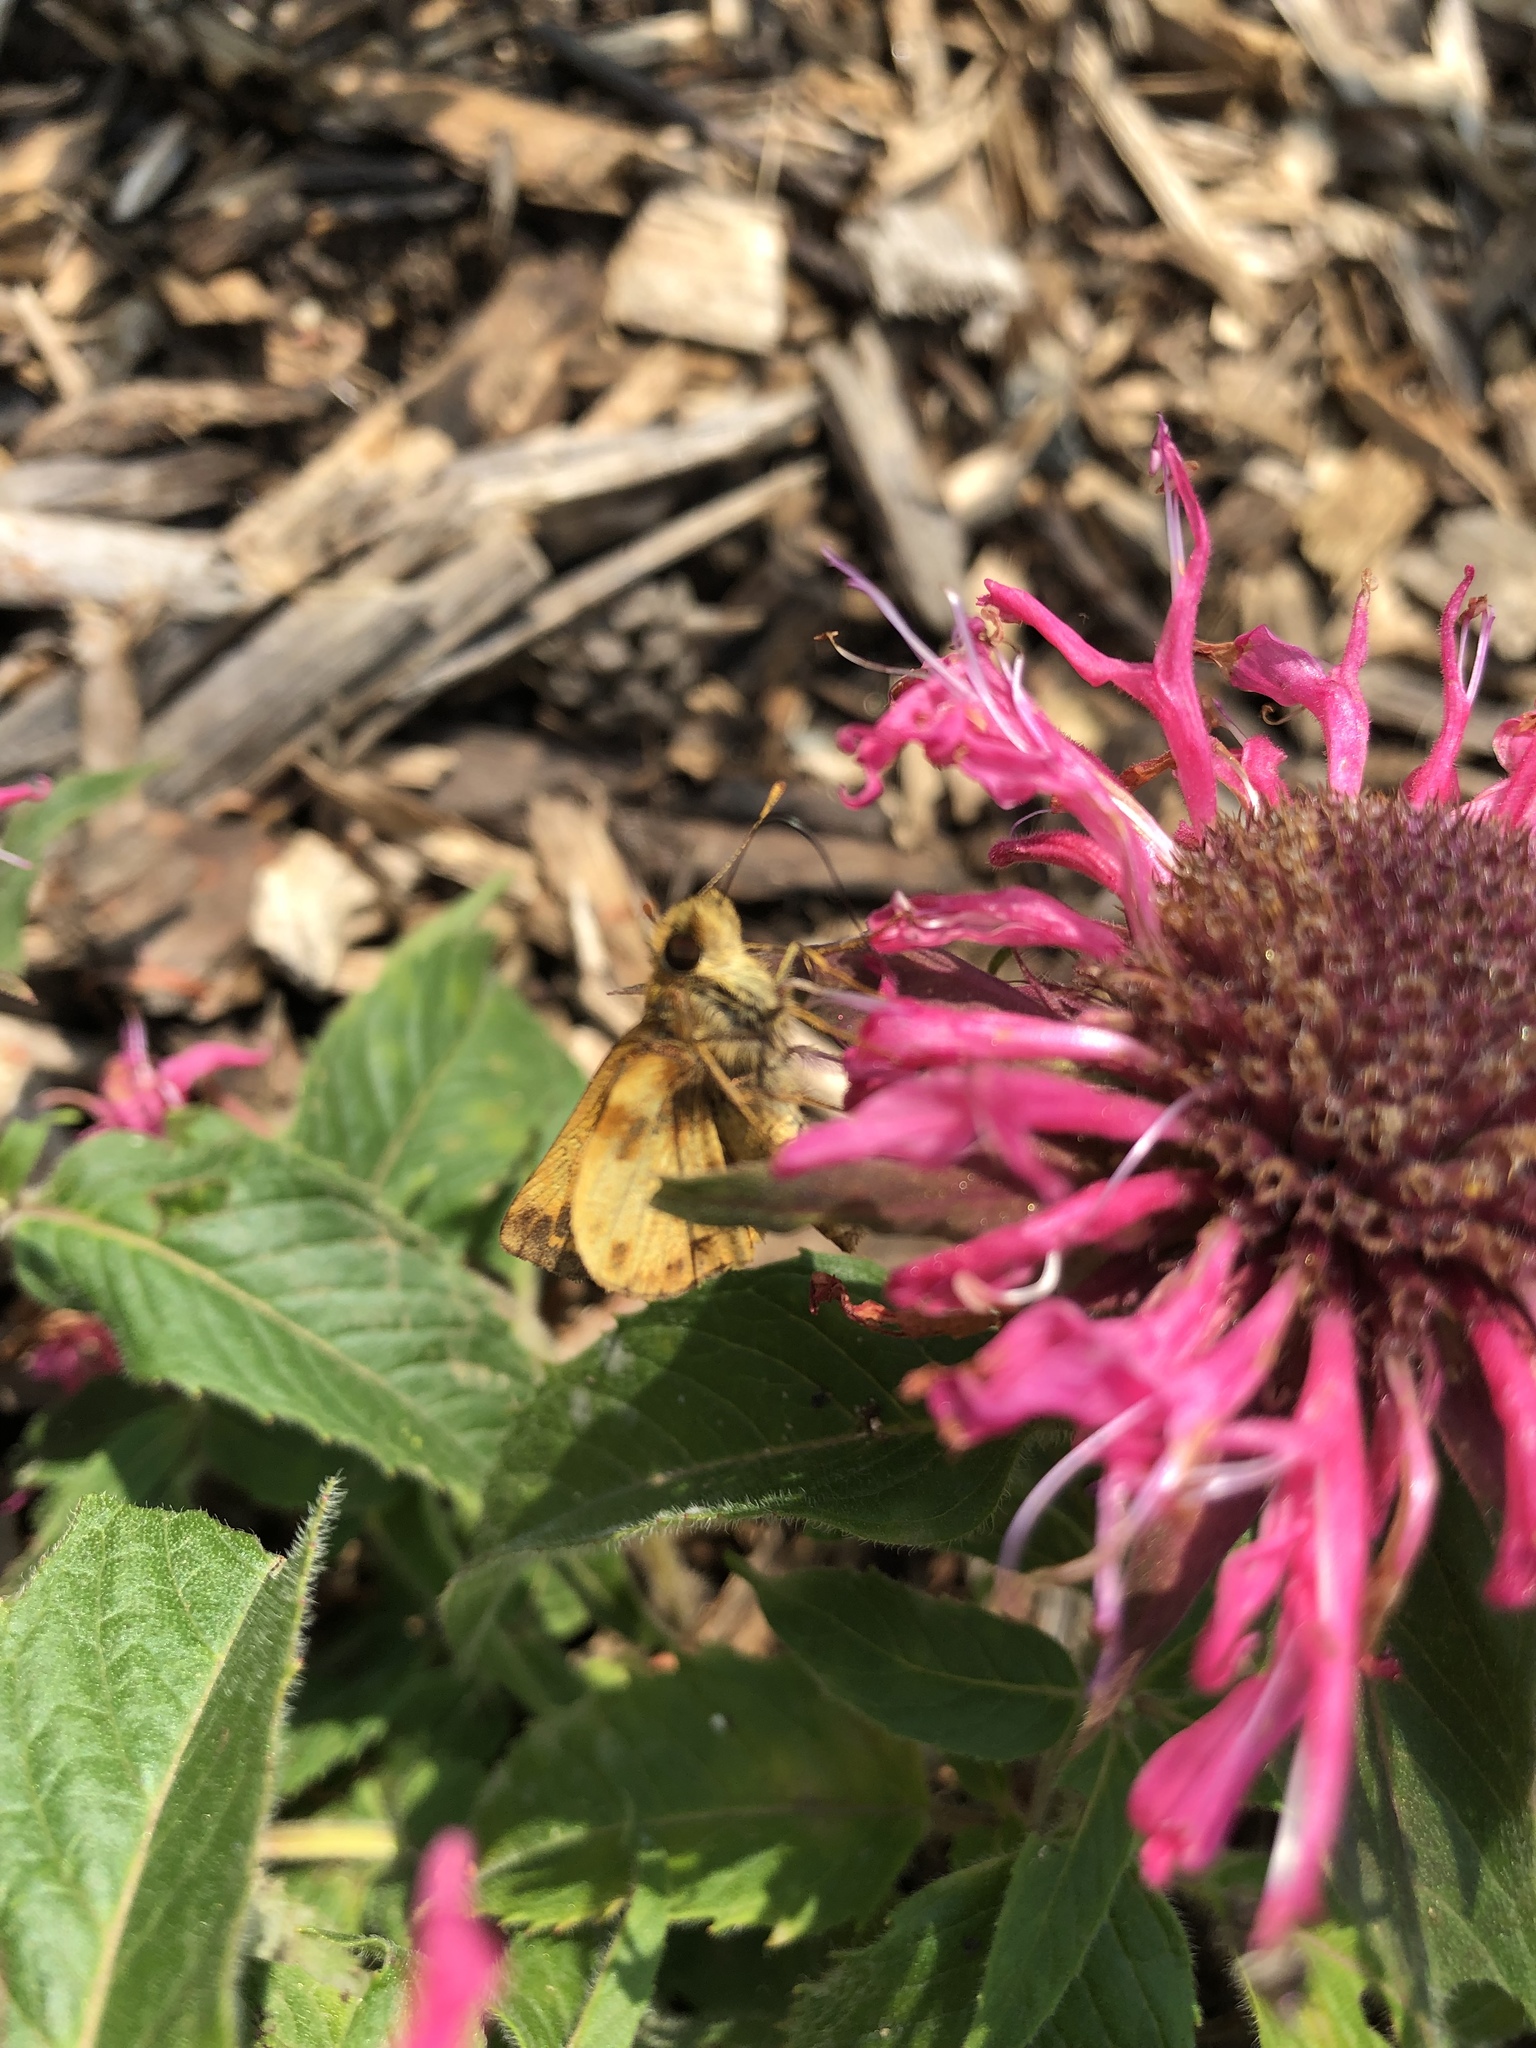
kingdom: Animalia
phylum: Arthropoda
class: Insecta
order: Lepidoptera
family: Hesperiidae
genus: Lon
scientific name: Lon zabulon
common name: Zabulon skipper
